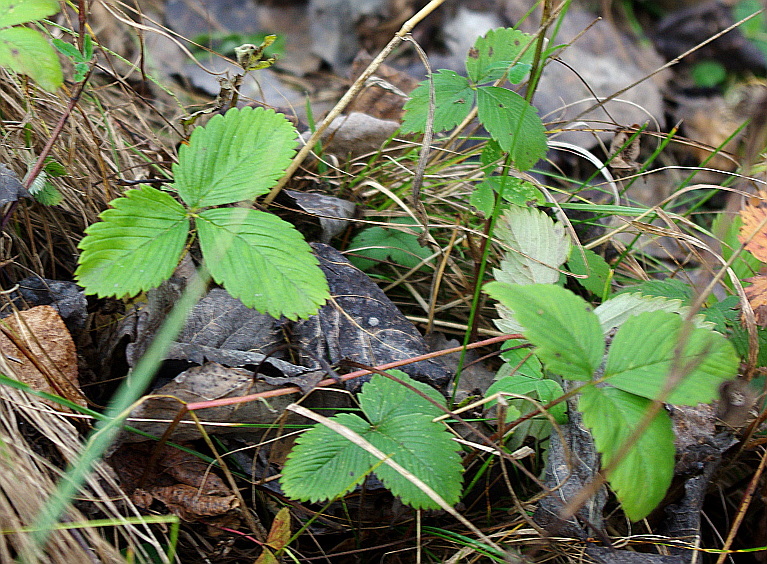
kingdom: Plantae
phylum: Tracheophyta
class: Magnoliopsida
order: Rosales
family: Rosaceae
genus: Fragaria
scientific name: Fragaria vesca
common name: Wild strawberry
